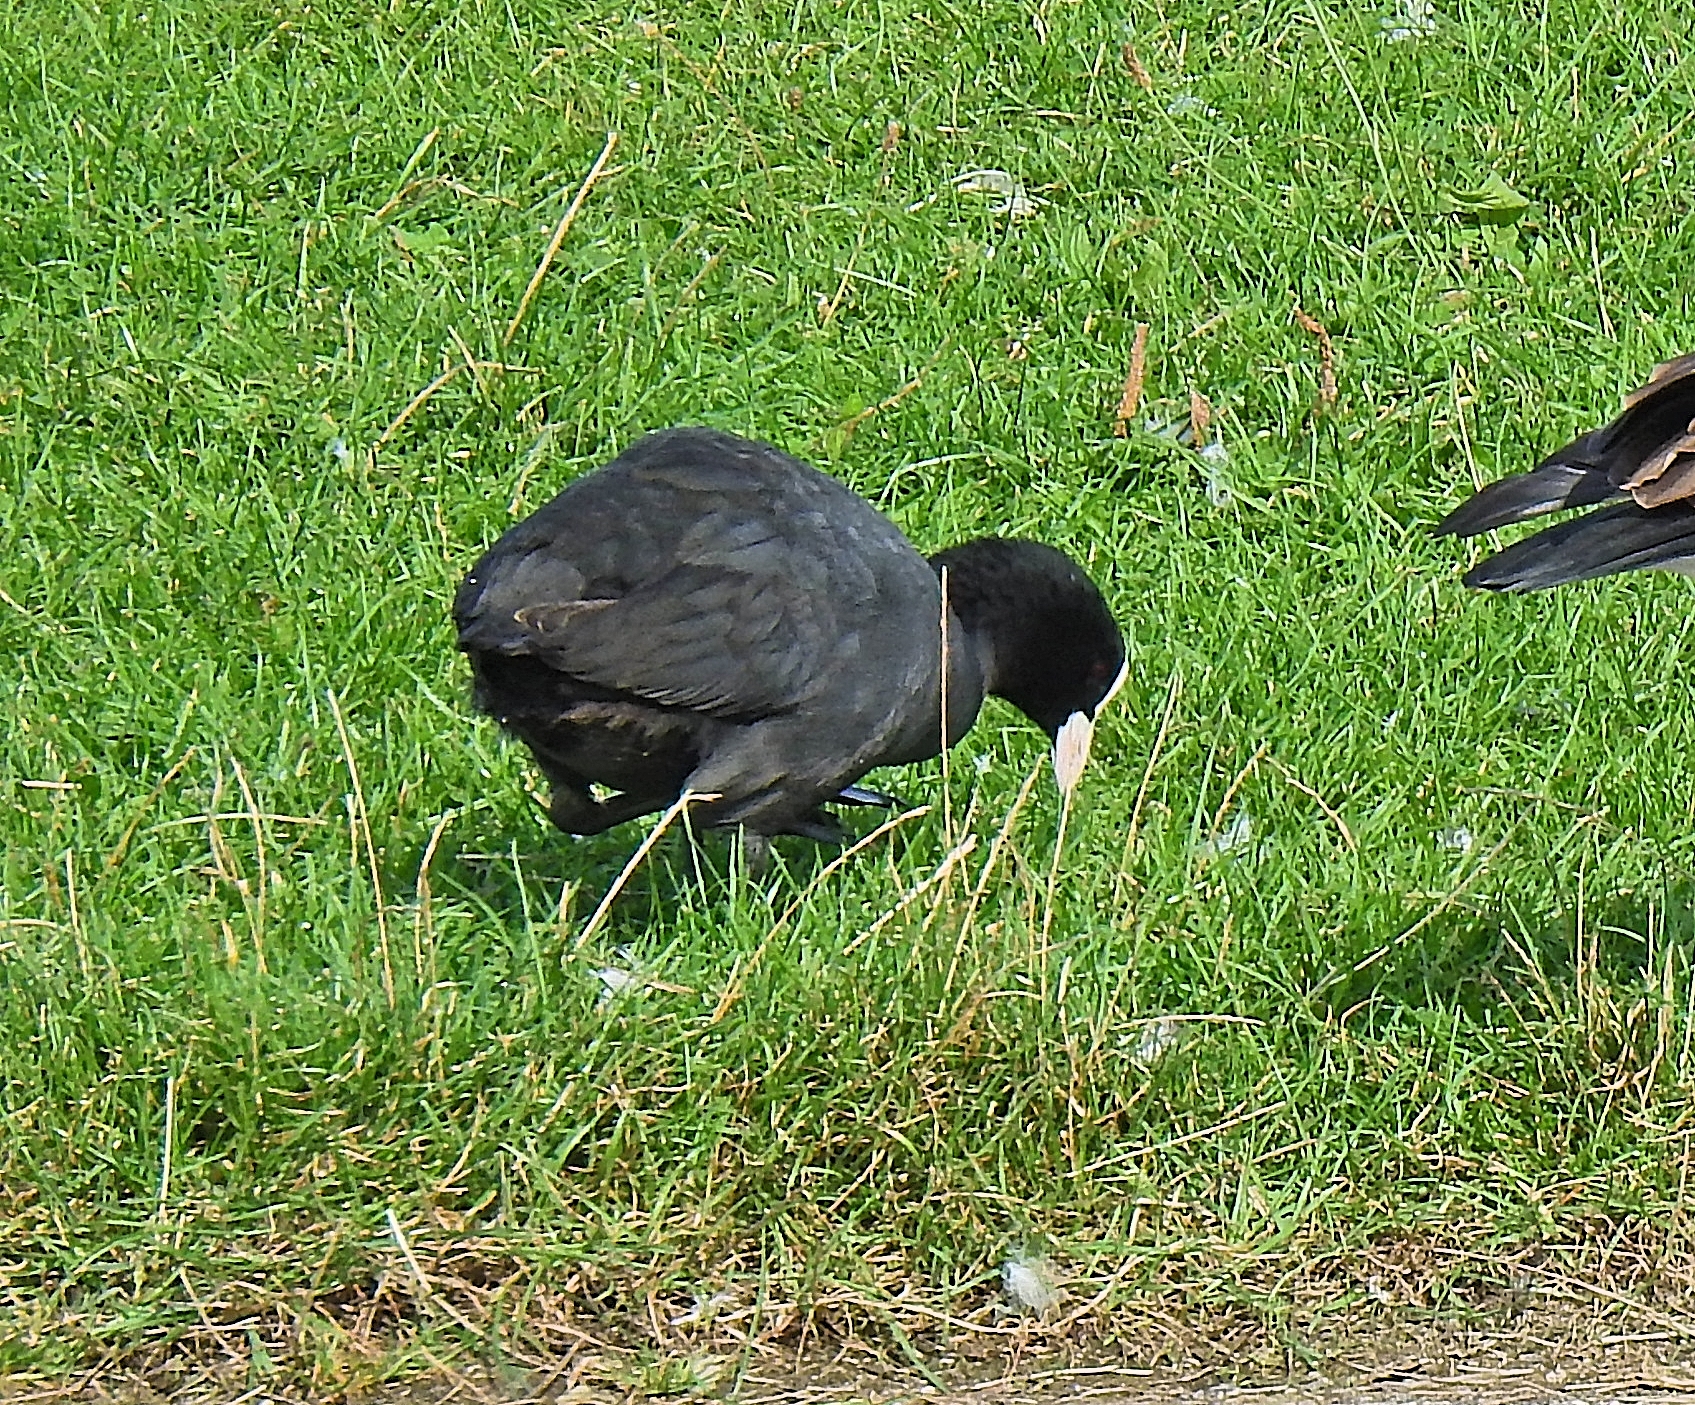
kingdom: Animalia
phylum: Chordata
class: Aves
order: Gruiformes
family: Rallidae
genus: Fulica
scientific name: Fulica atra
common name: Eurasian coot
